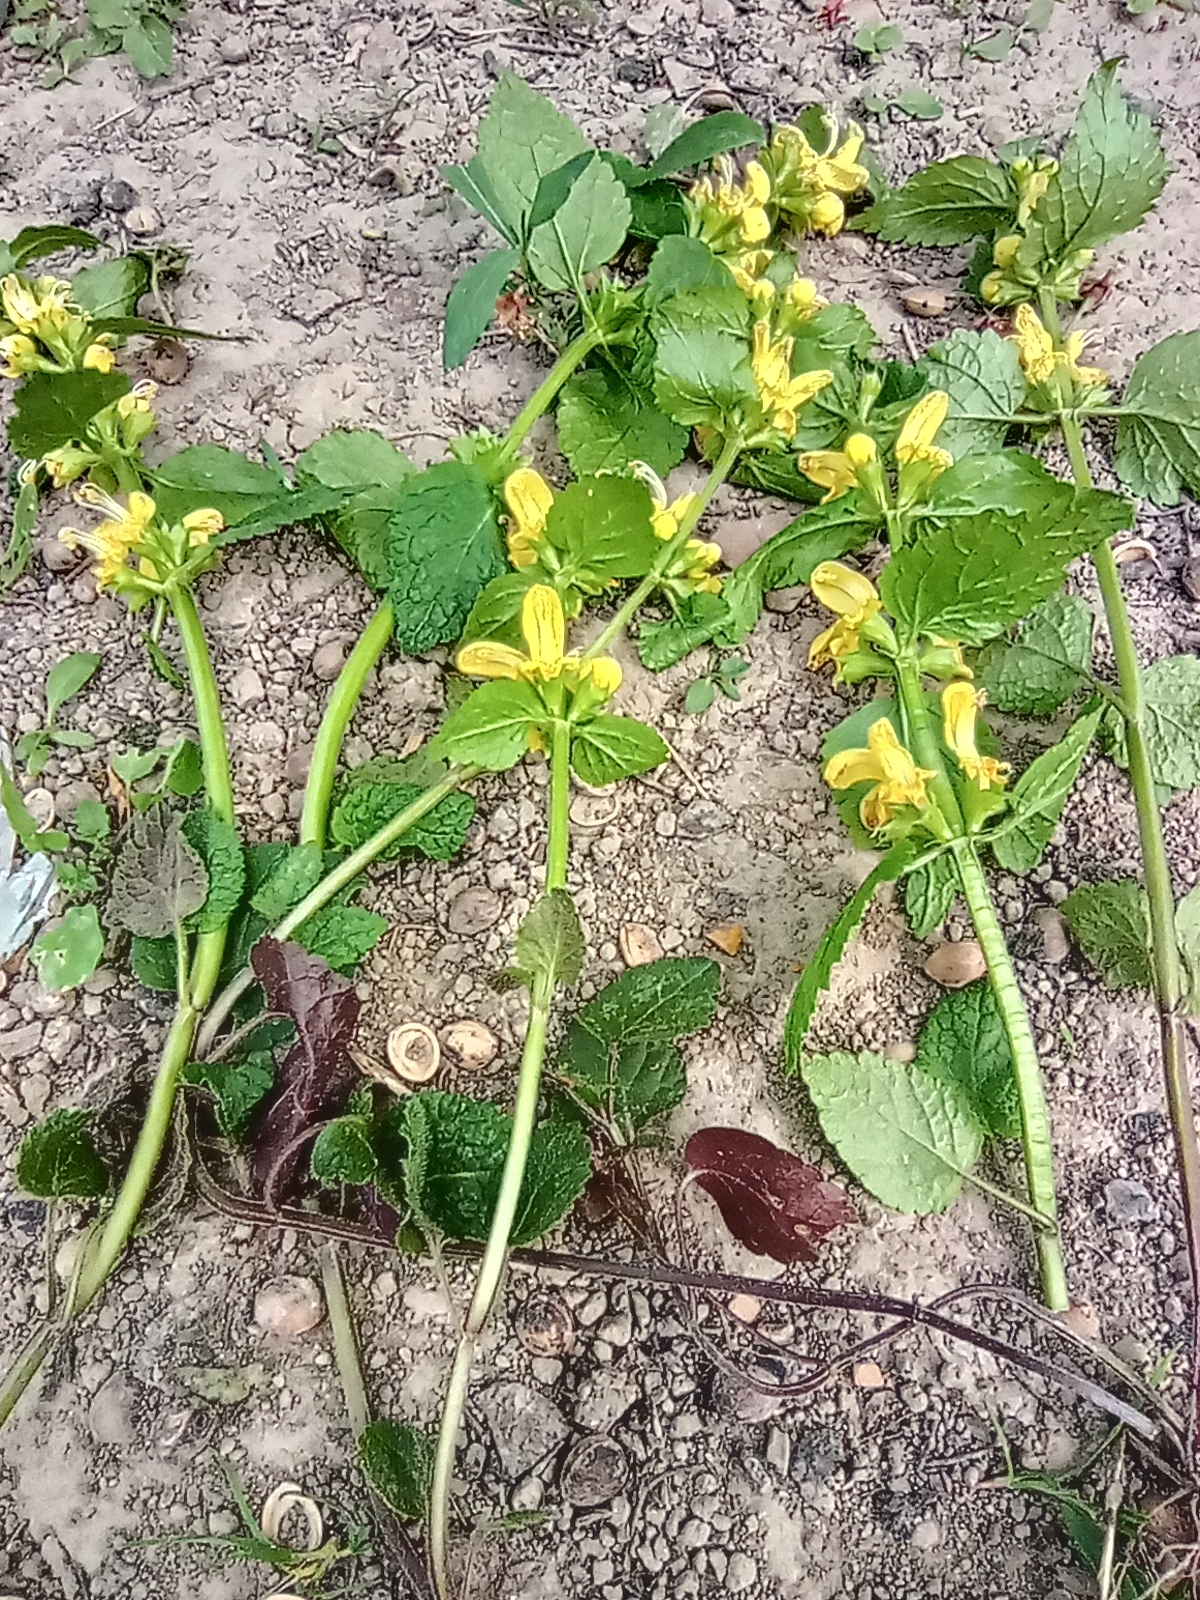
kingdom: Plantae
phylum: Tracheophyta
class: Magnoliopsida
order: Lamiales
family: Lamiaceae
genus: Lamium
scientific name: Lamium galeobdolon
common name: Yellow archangel
